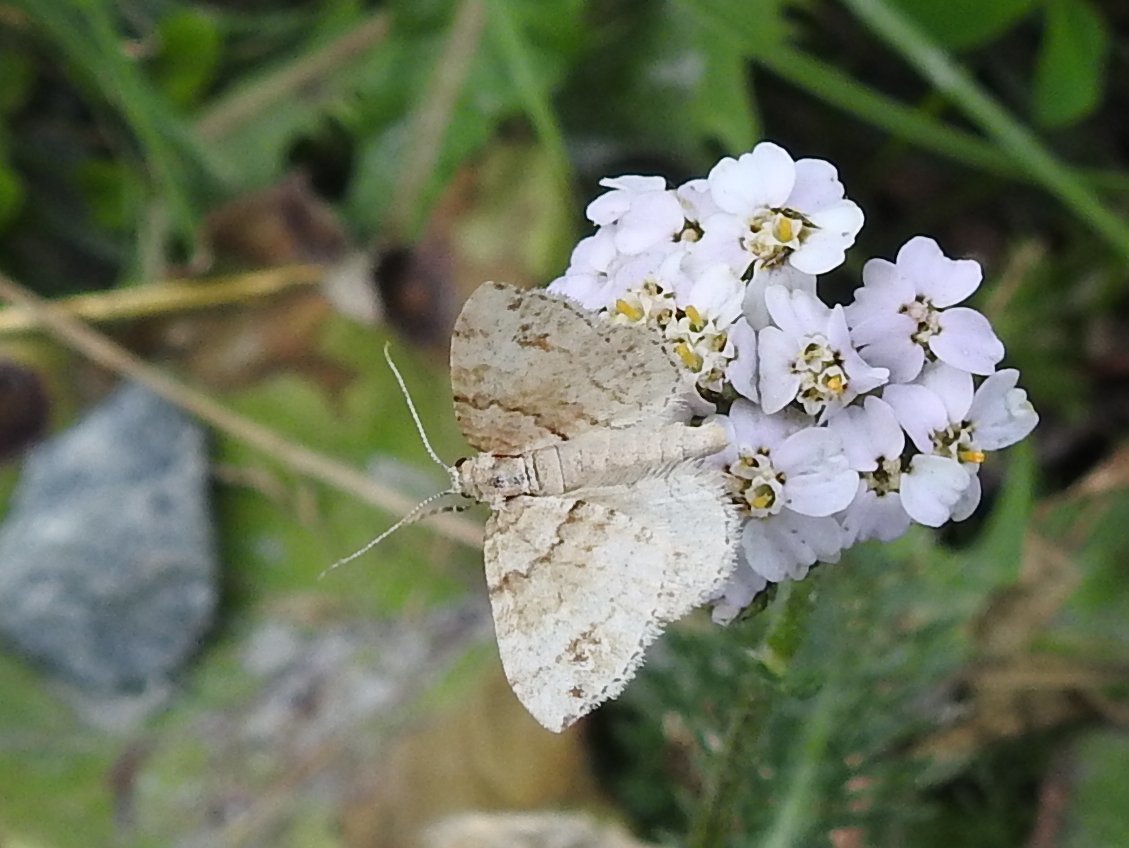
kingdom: Animalia
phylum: Arthropoda
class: Insecta
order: Lepidoptera
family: Geometridae
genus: Perizoma
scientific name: Perizoma didymata
